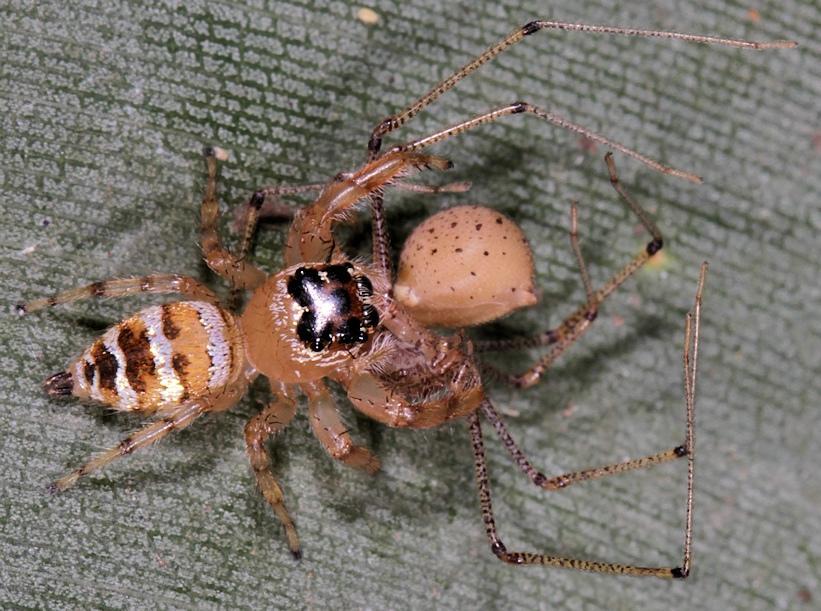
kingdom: Animalia
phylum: Arthropoda
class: Arachnida
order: Araneae
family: Salticidae
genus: Thyene
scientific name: Thyene natalii
